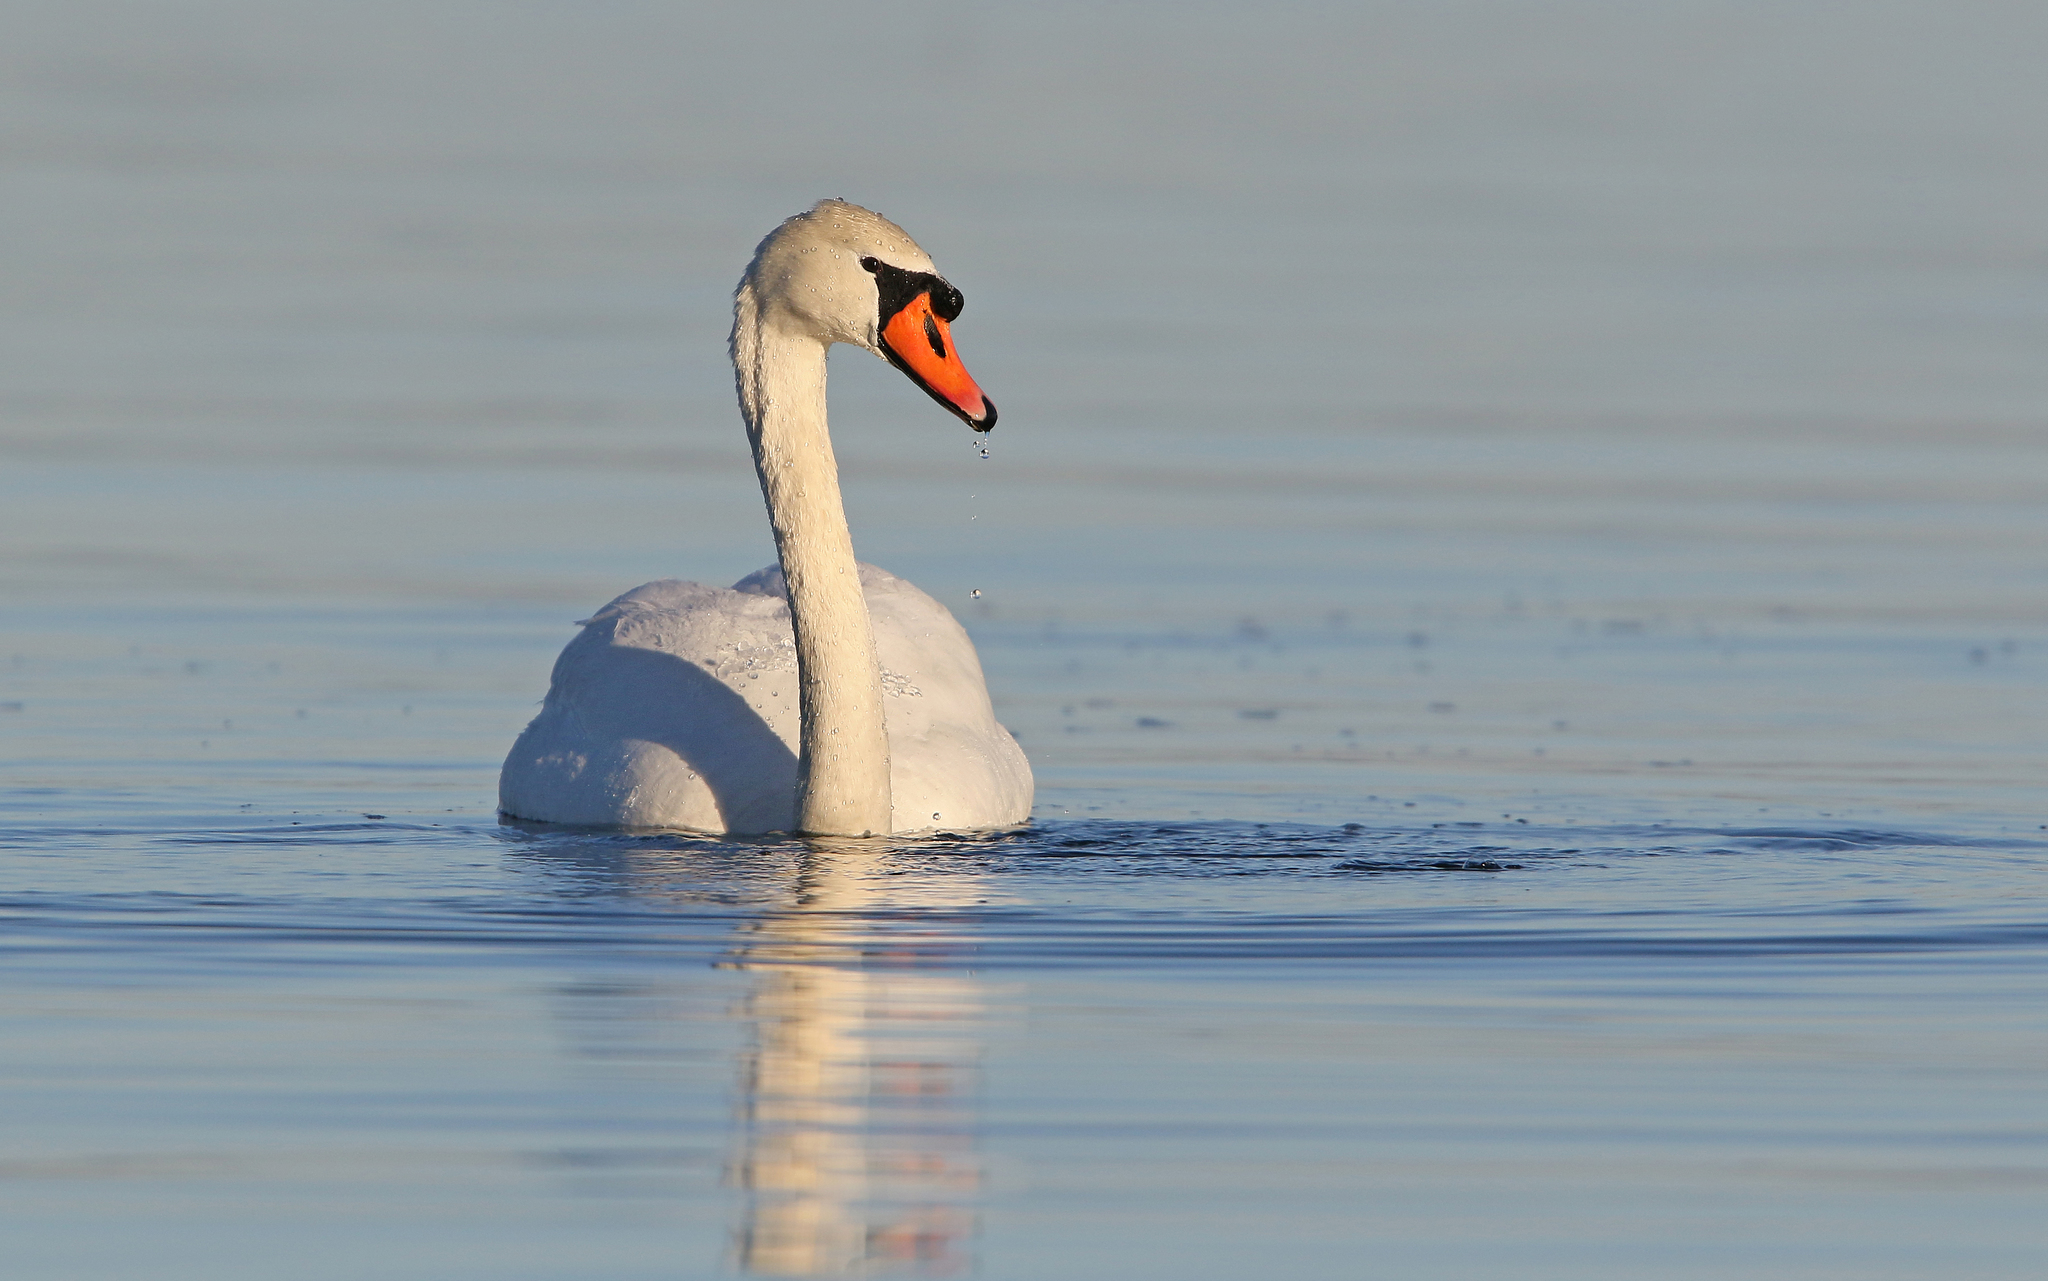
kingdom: Animalia
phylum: Chordata
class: Aves
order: Anseriformes
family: Anatidae
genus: Cygnus
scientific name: Cygnus olor
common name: Mute swan
